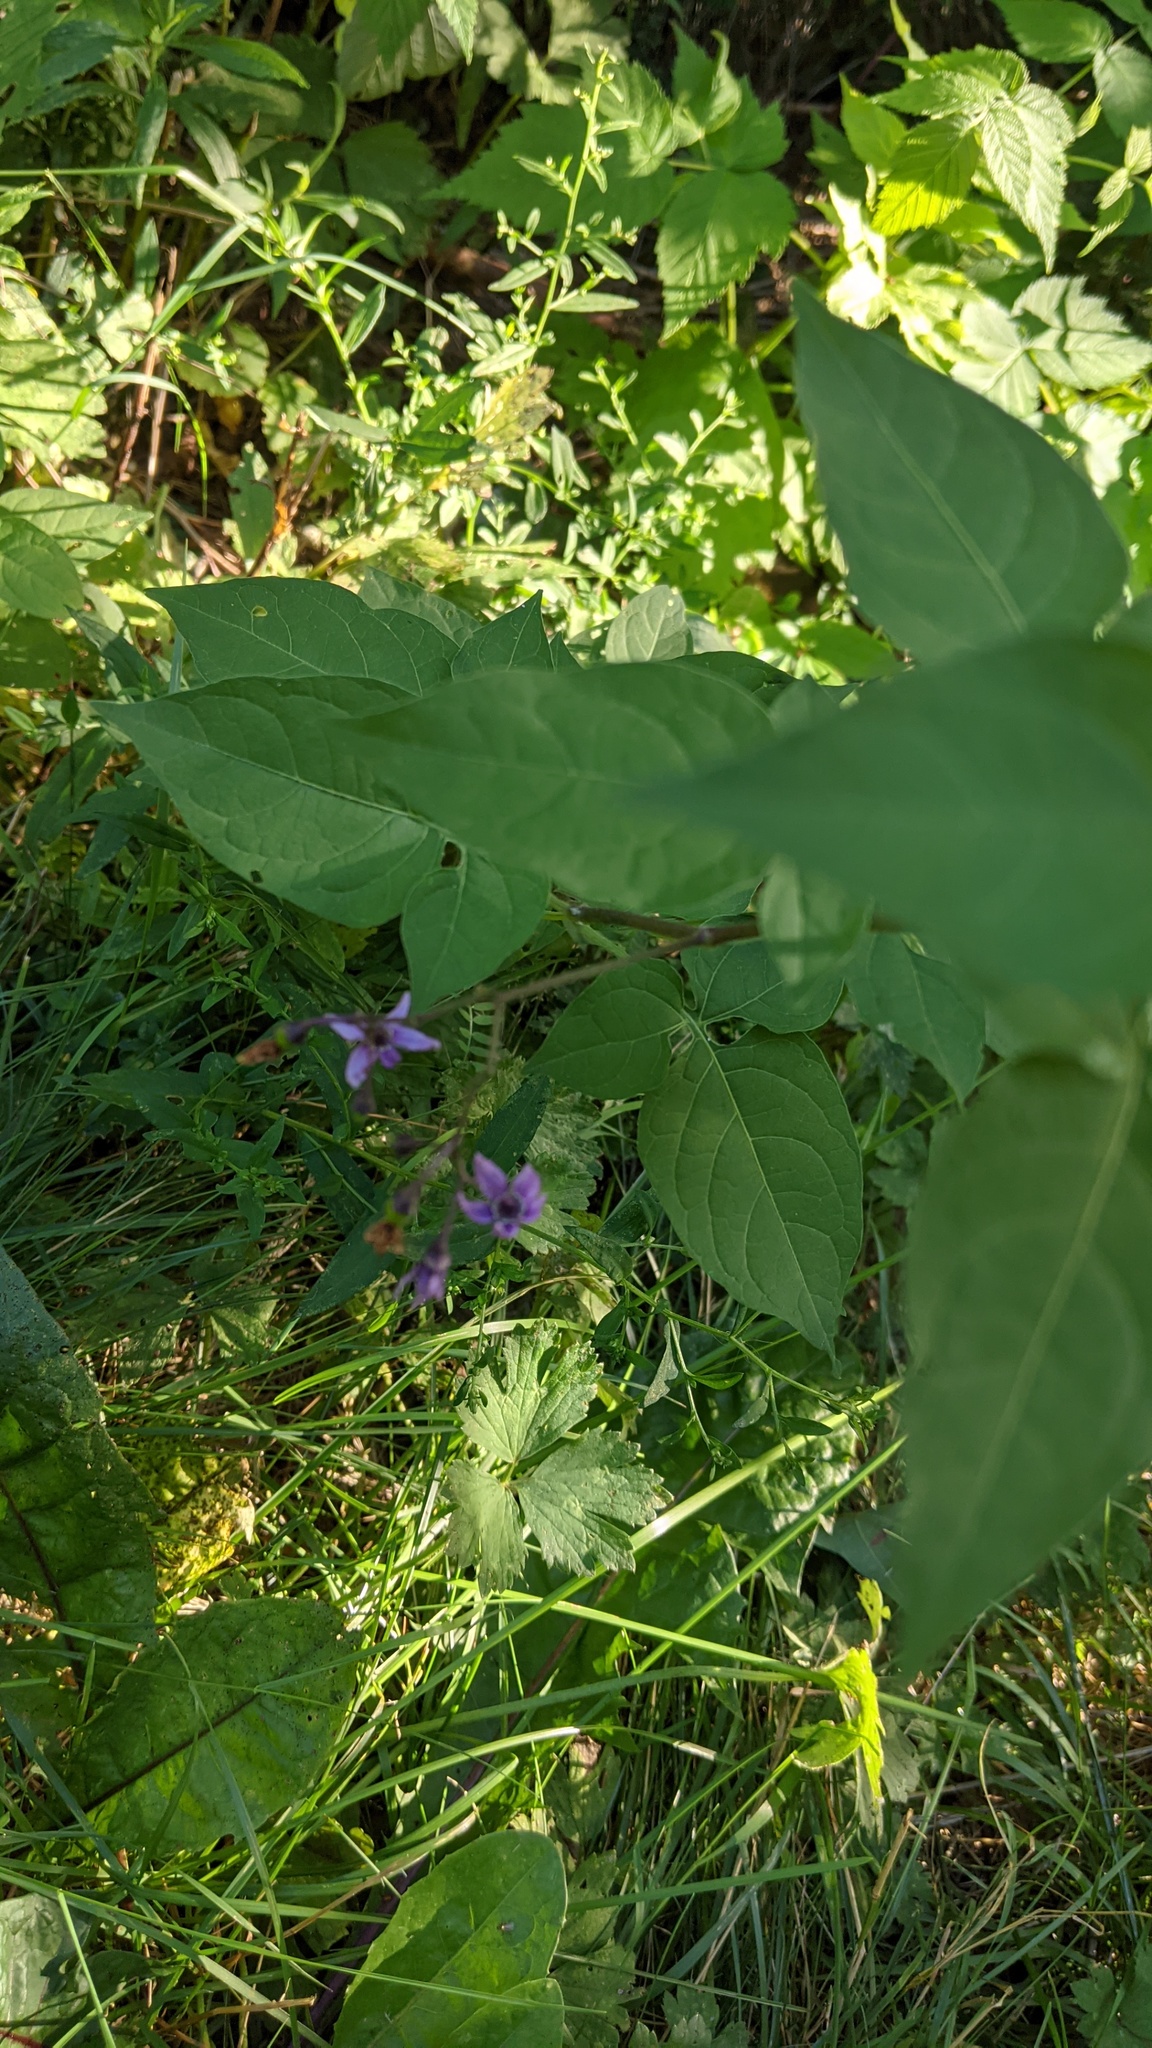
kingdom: Plantae
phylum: Tracheophyta
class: Magnoliopsida
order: Solanales
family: Solanaceae
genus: Solanum
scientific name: Solanum dulcamara
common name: Climbing nightshade
